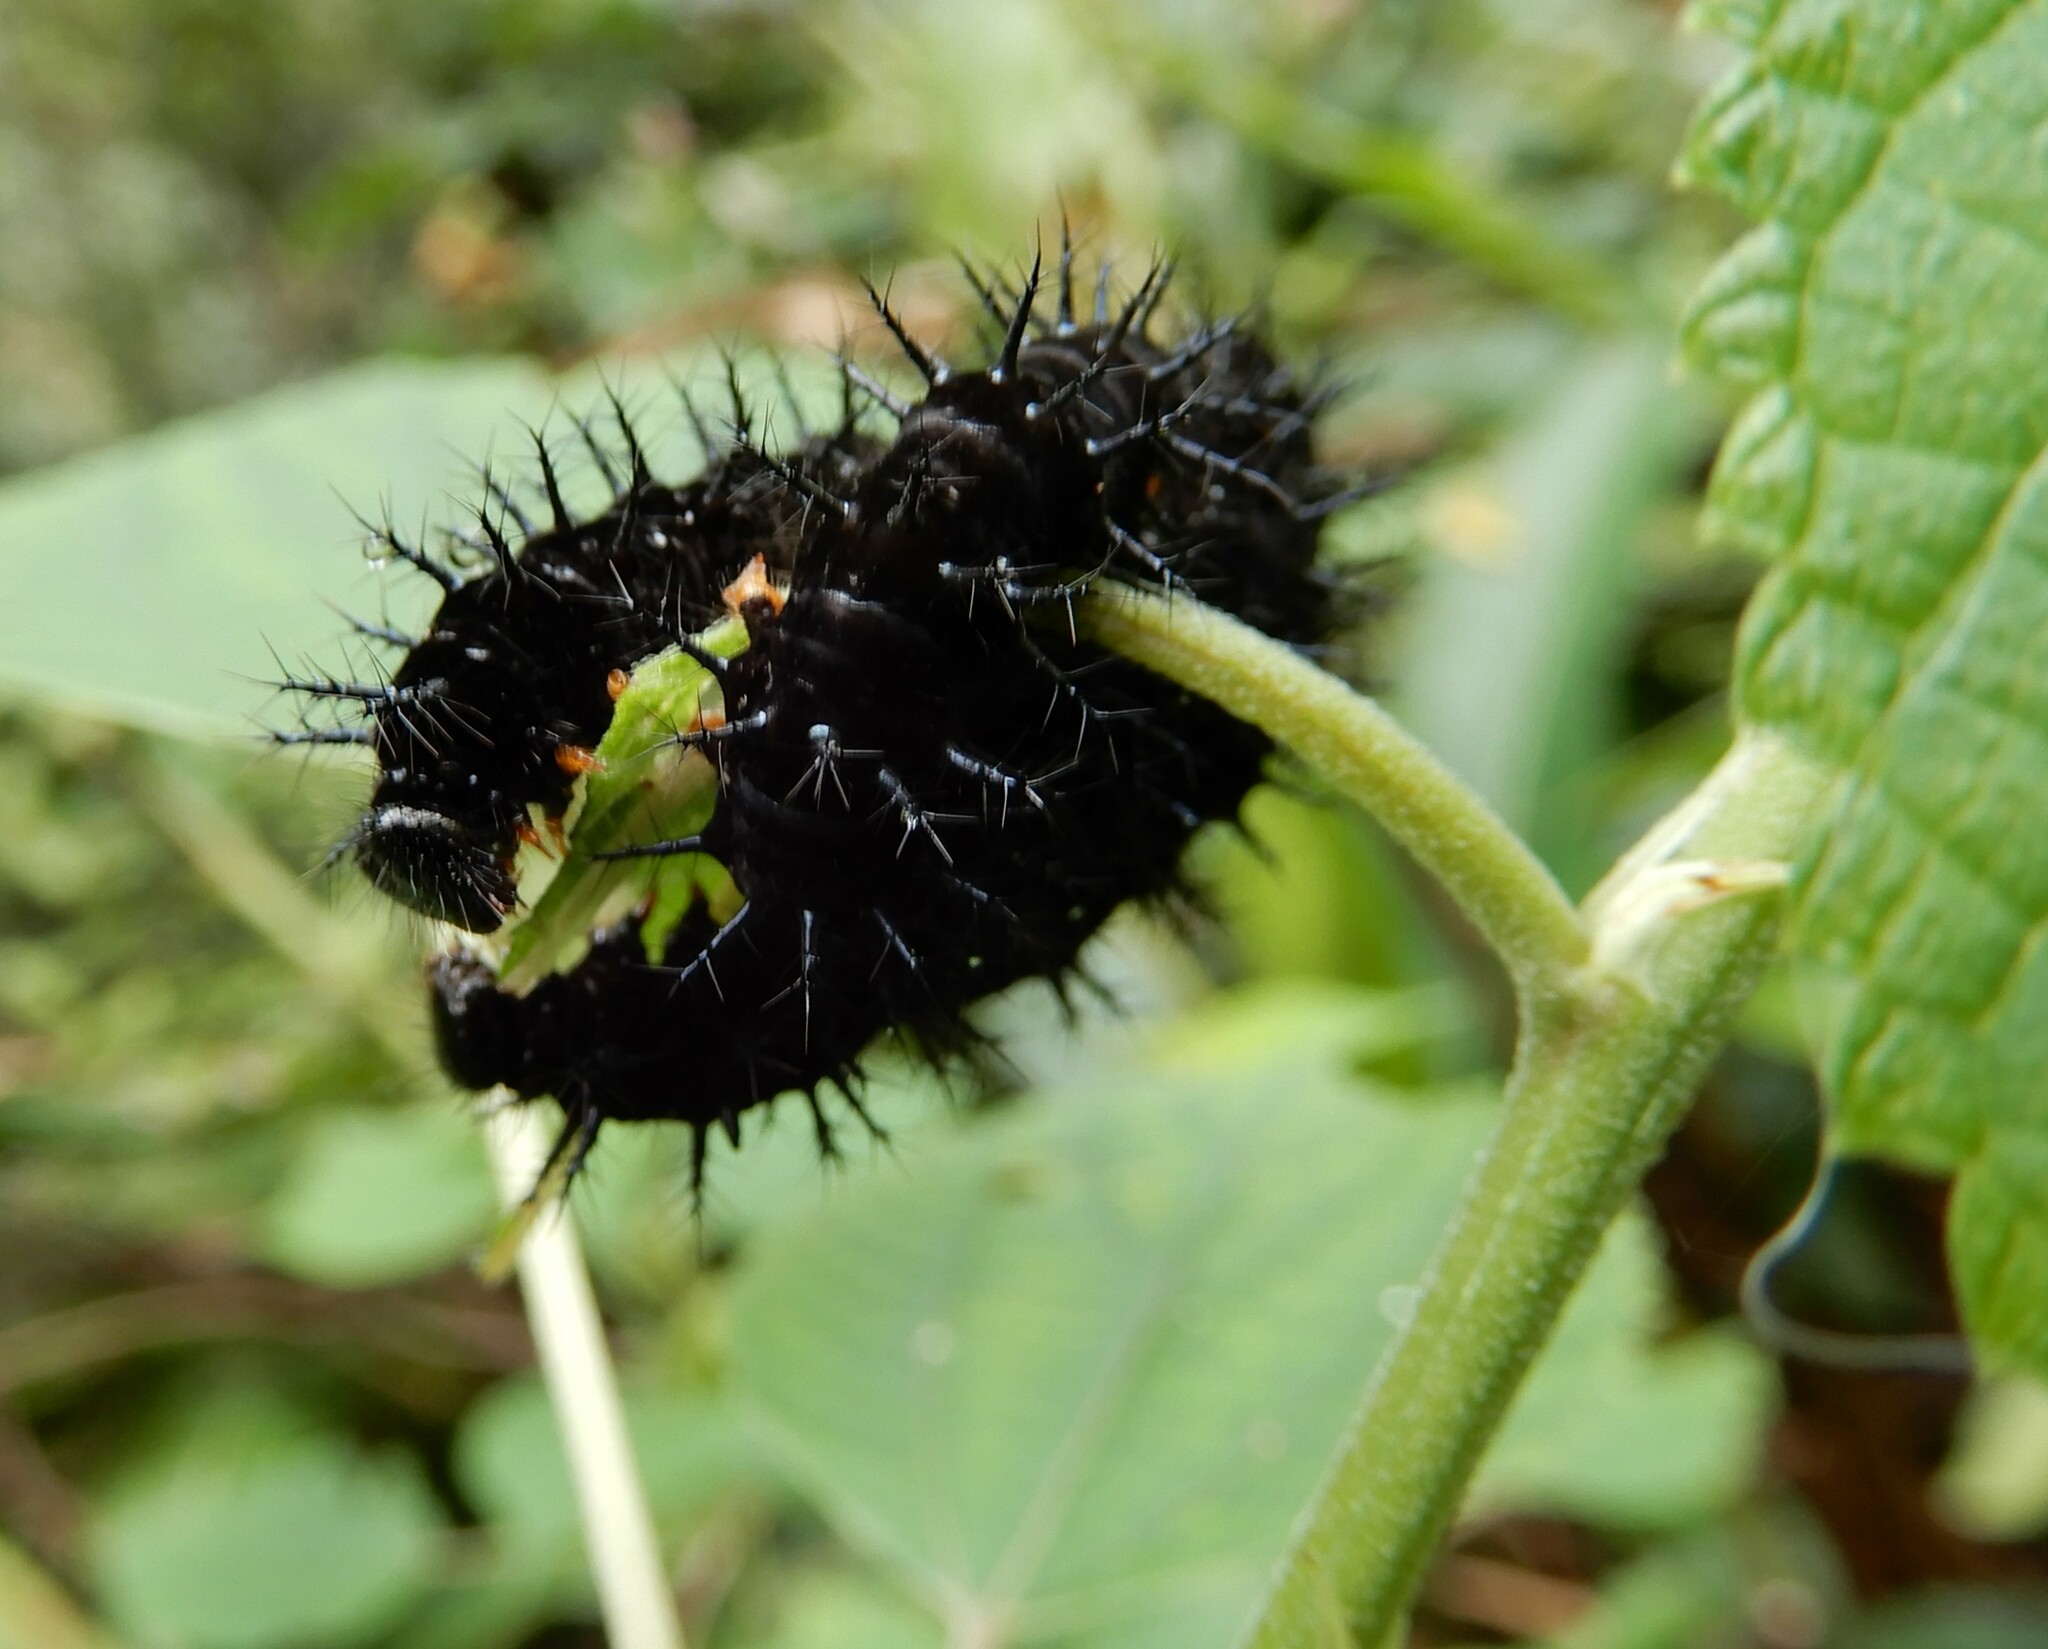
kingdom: Animalia
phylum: Arthropoda
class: Insecta
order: Lepidoptera
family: Nymphalidae
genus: Symbrenthia
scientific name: Symbrenthia hypselis
